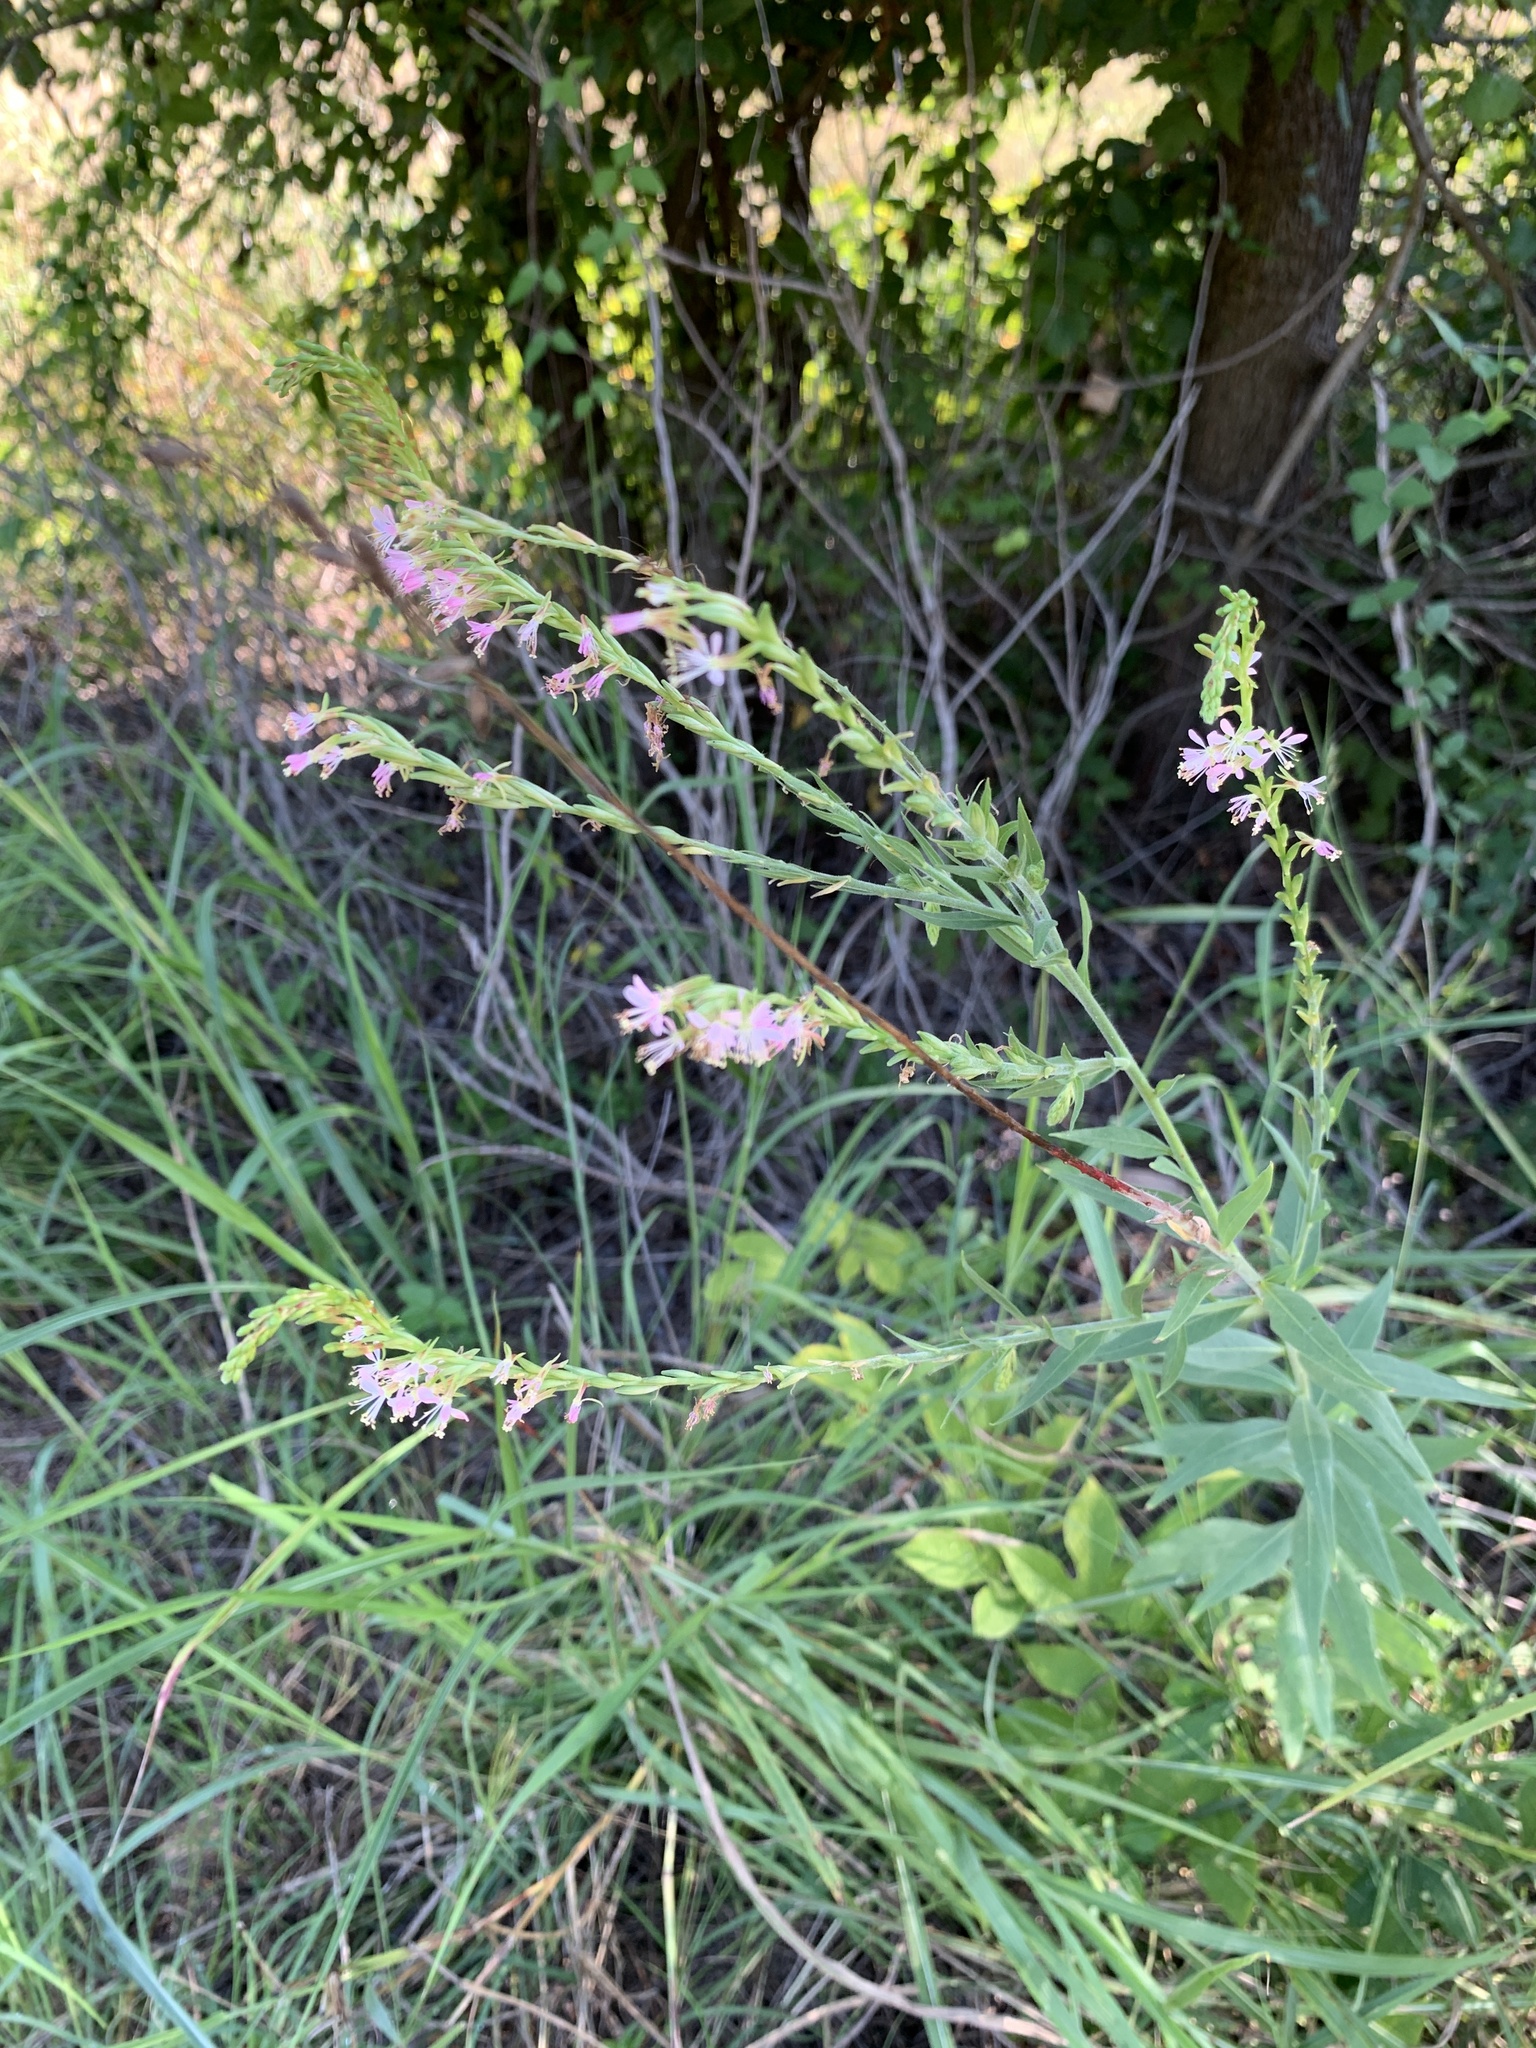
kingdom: Plantae
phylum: Tracheophyta
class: Magnoliopsida
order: Myrtales
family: Onagraceae
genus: Oenothera
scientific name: Oenothera curtiflora
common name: Velvetweed
